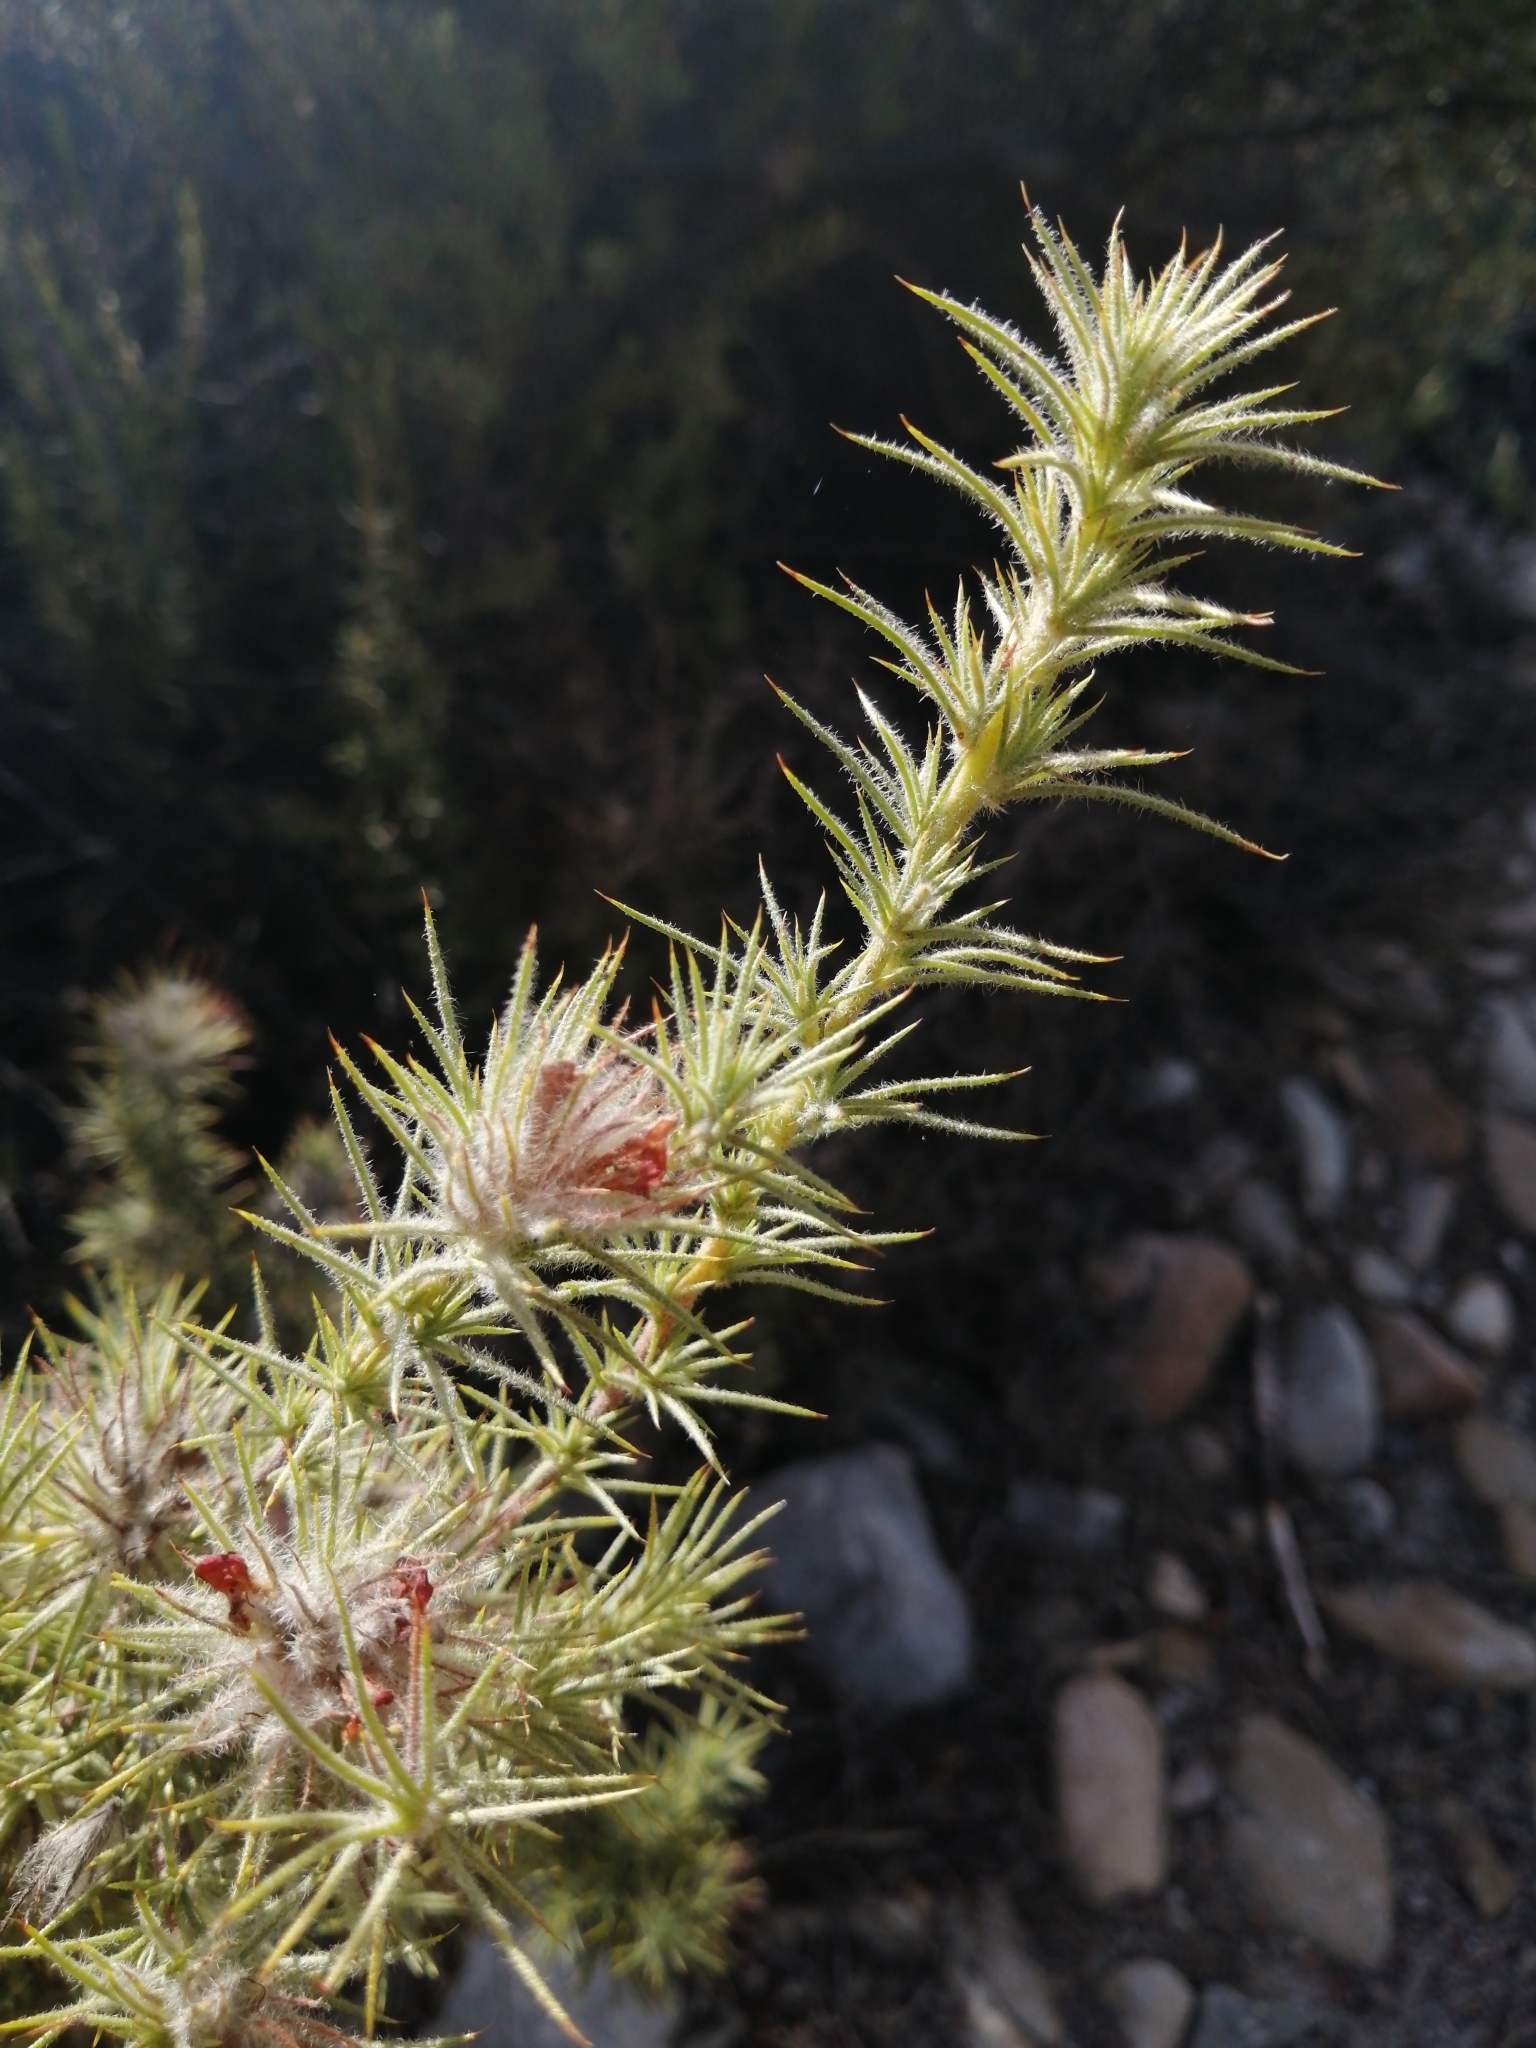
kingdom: Plantae
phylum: Tracheophyta
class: Magnoliopsida
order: Fabales
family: Fabaceae
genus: Aspalathus
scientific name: Aspalathus rubiginosa
